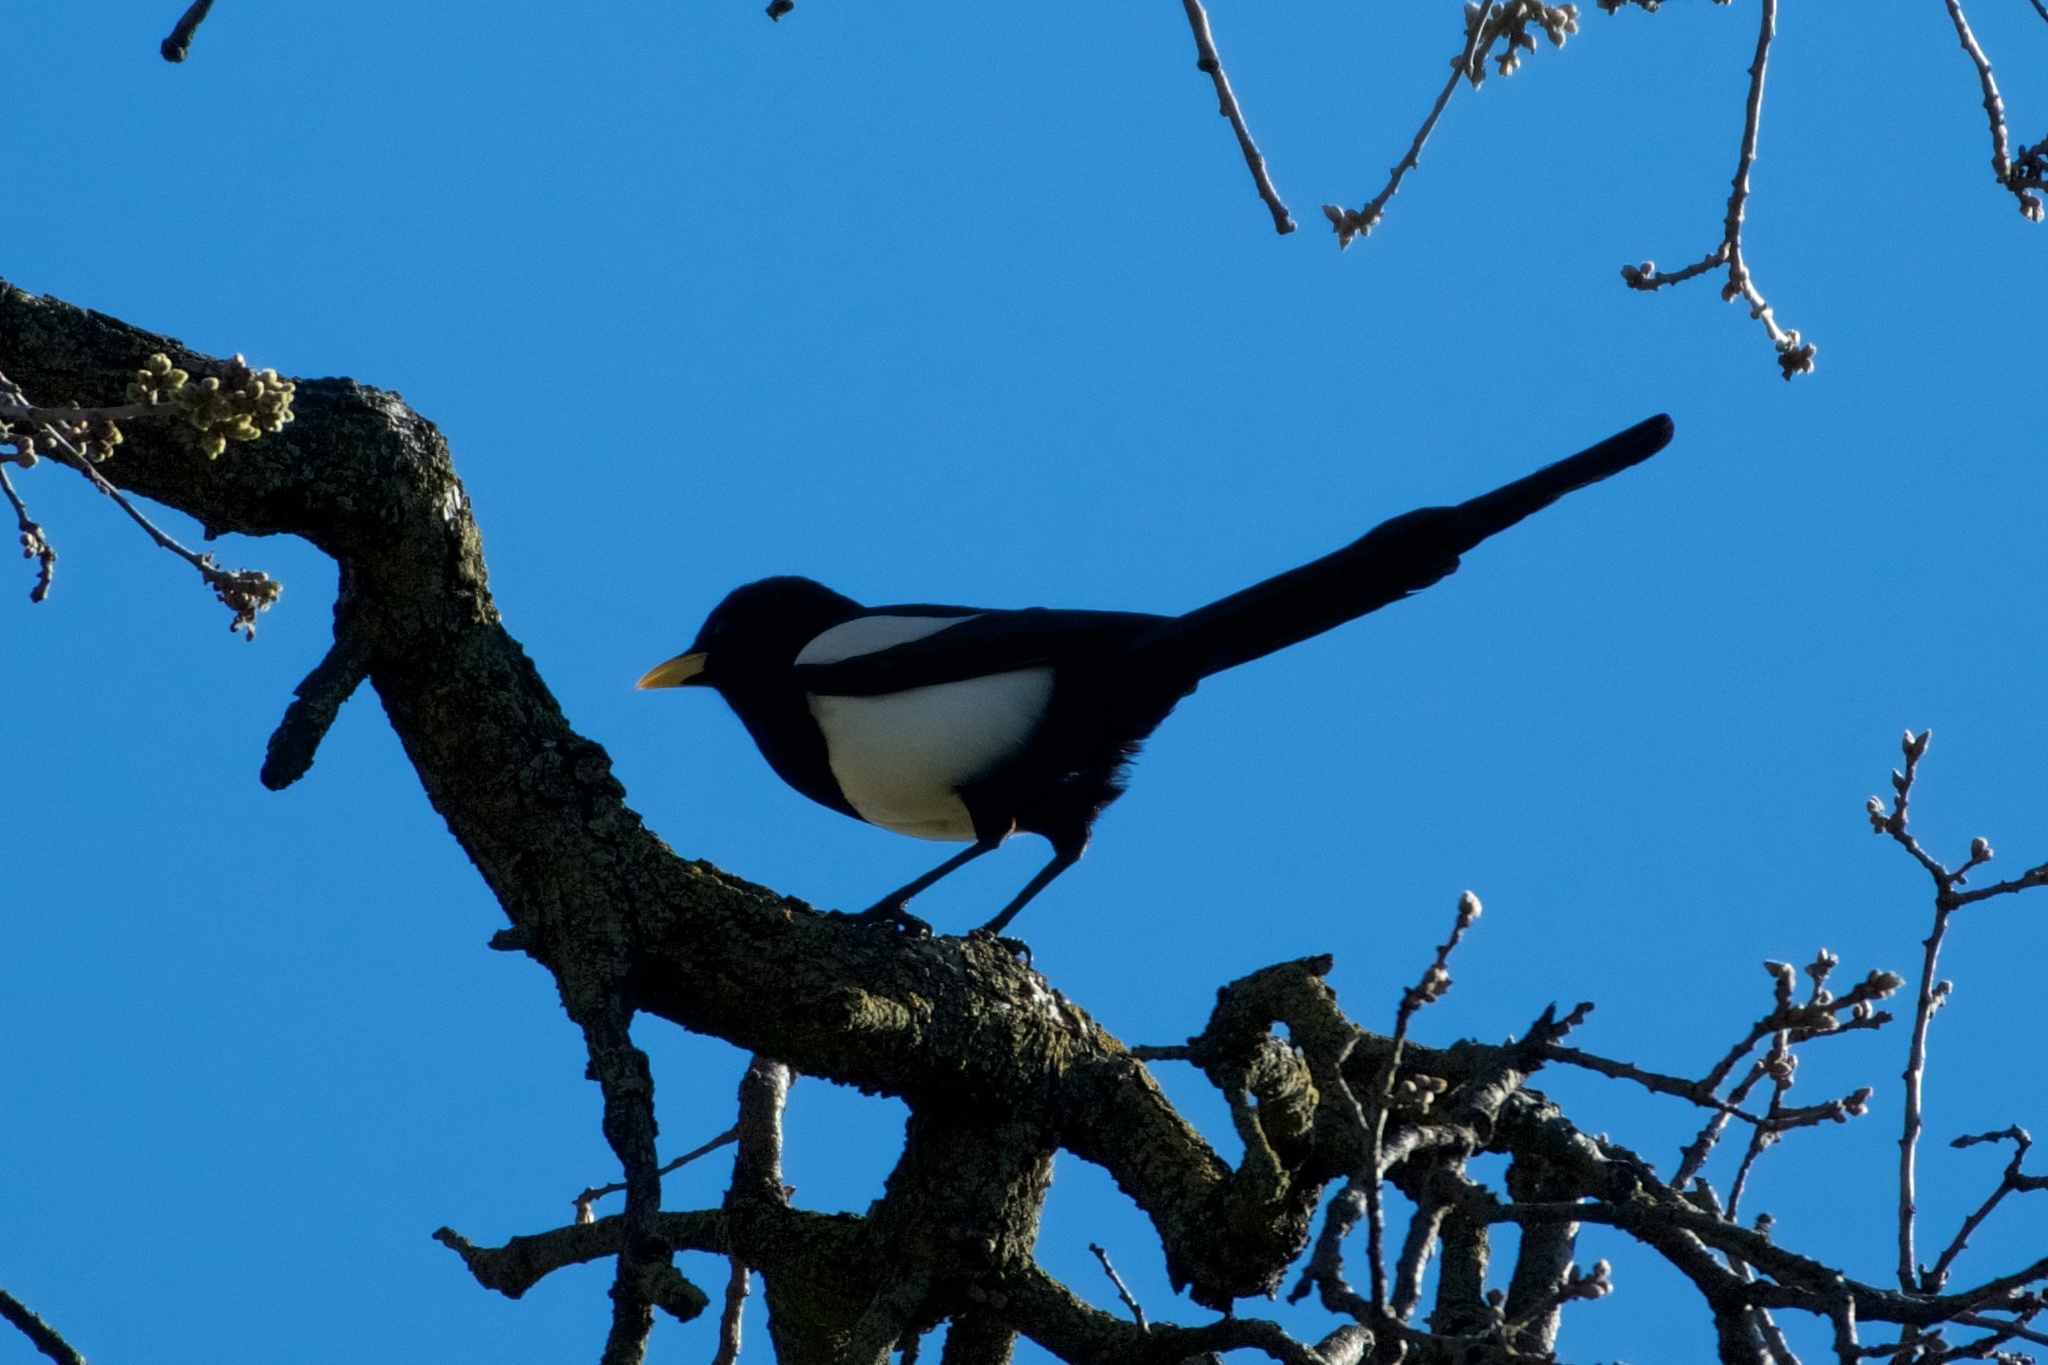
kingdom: Animalia
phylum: Chordata
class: Aves
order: Passeriformes
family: Corvidae
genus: Pica
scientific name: Pica nuttalli
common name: Yellow-billed magpie
